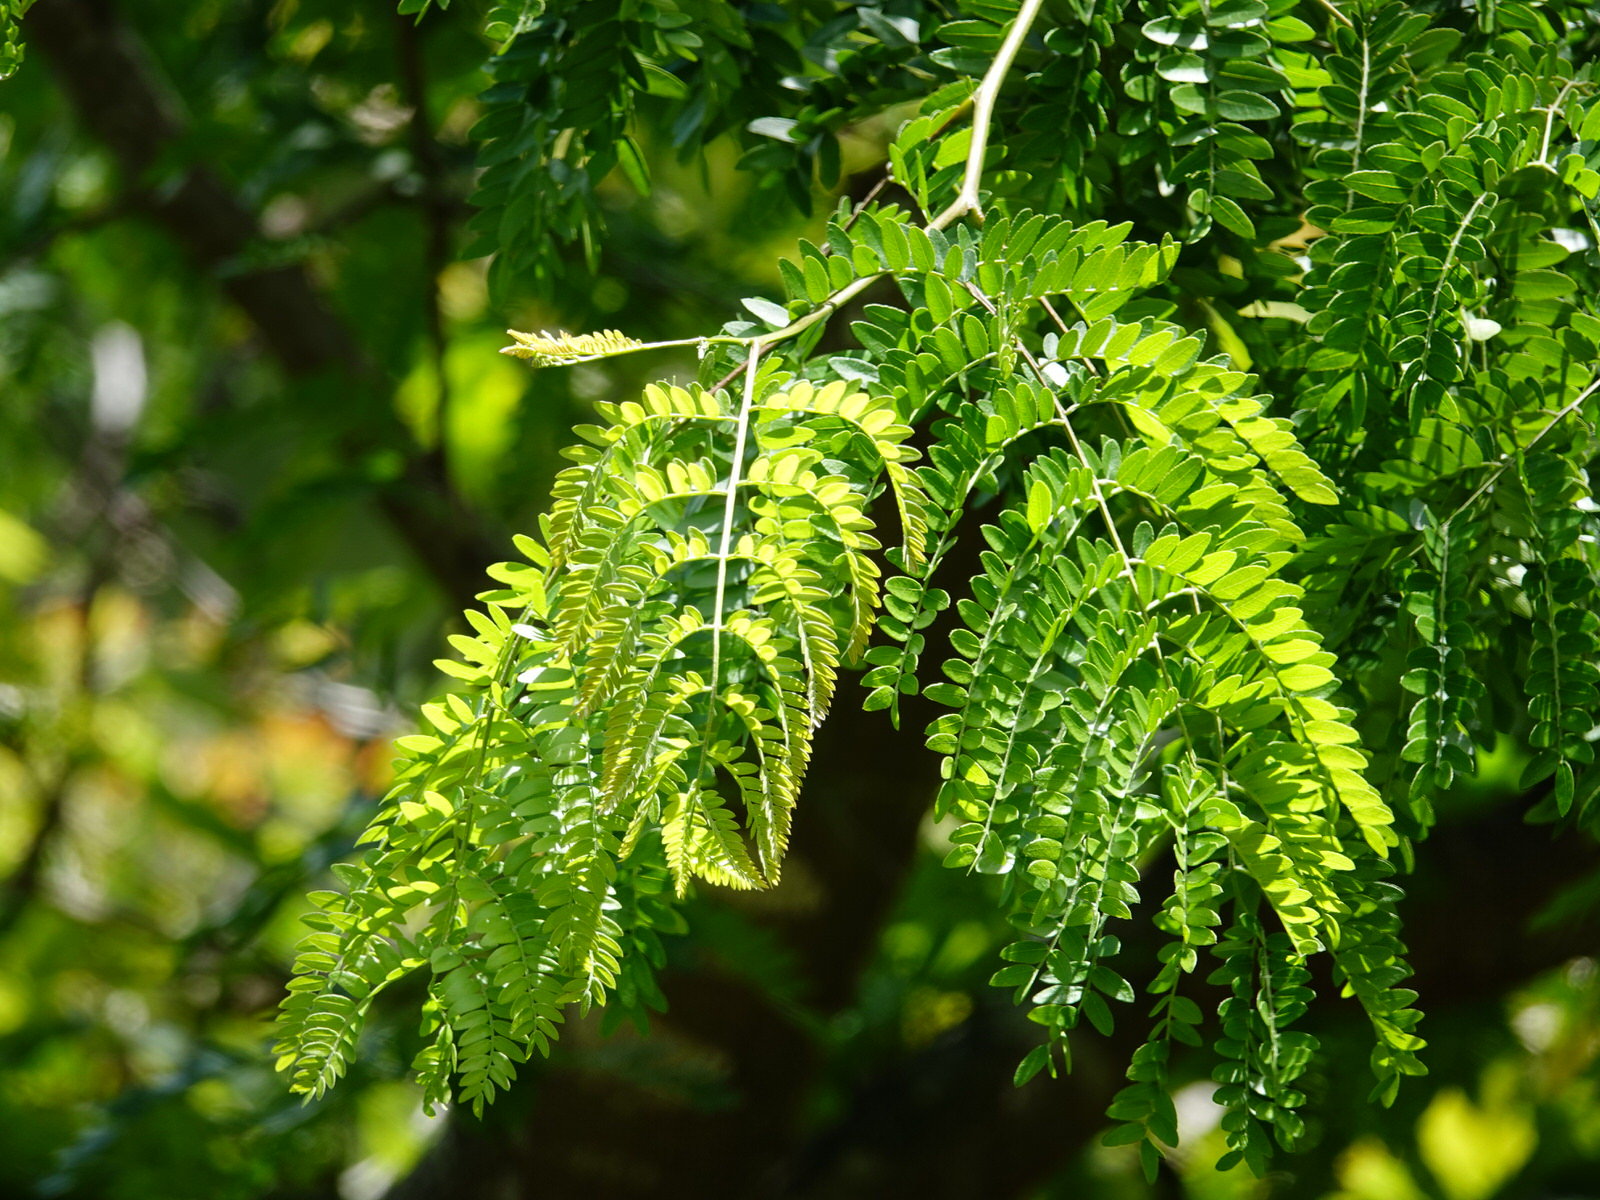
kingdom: Plantae
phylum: Tracheophyta
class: Magnoliopsida
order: Fabales
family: Fabaceae
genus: Gleditsia
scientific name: Gleditsia triacanthos
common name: Common honeylocust
